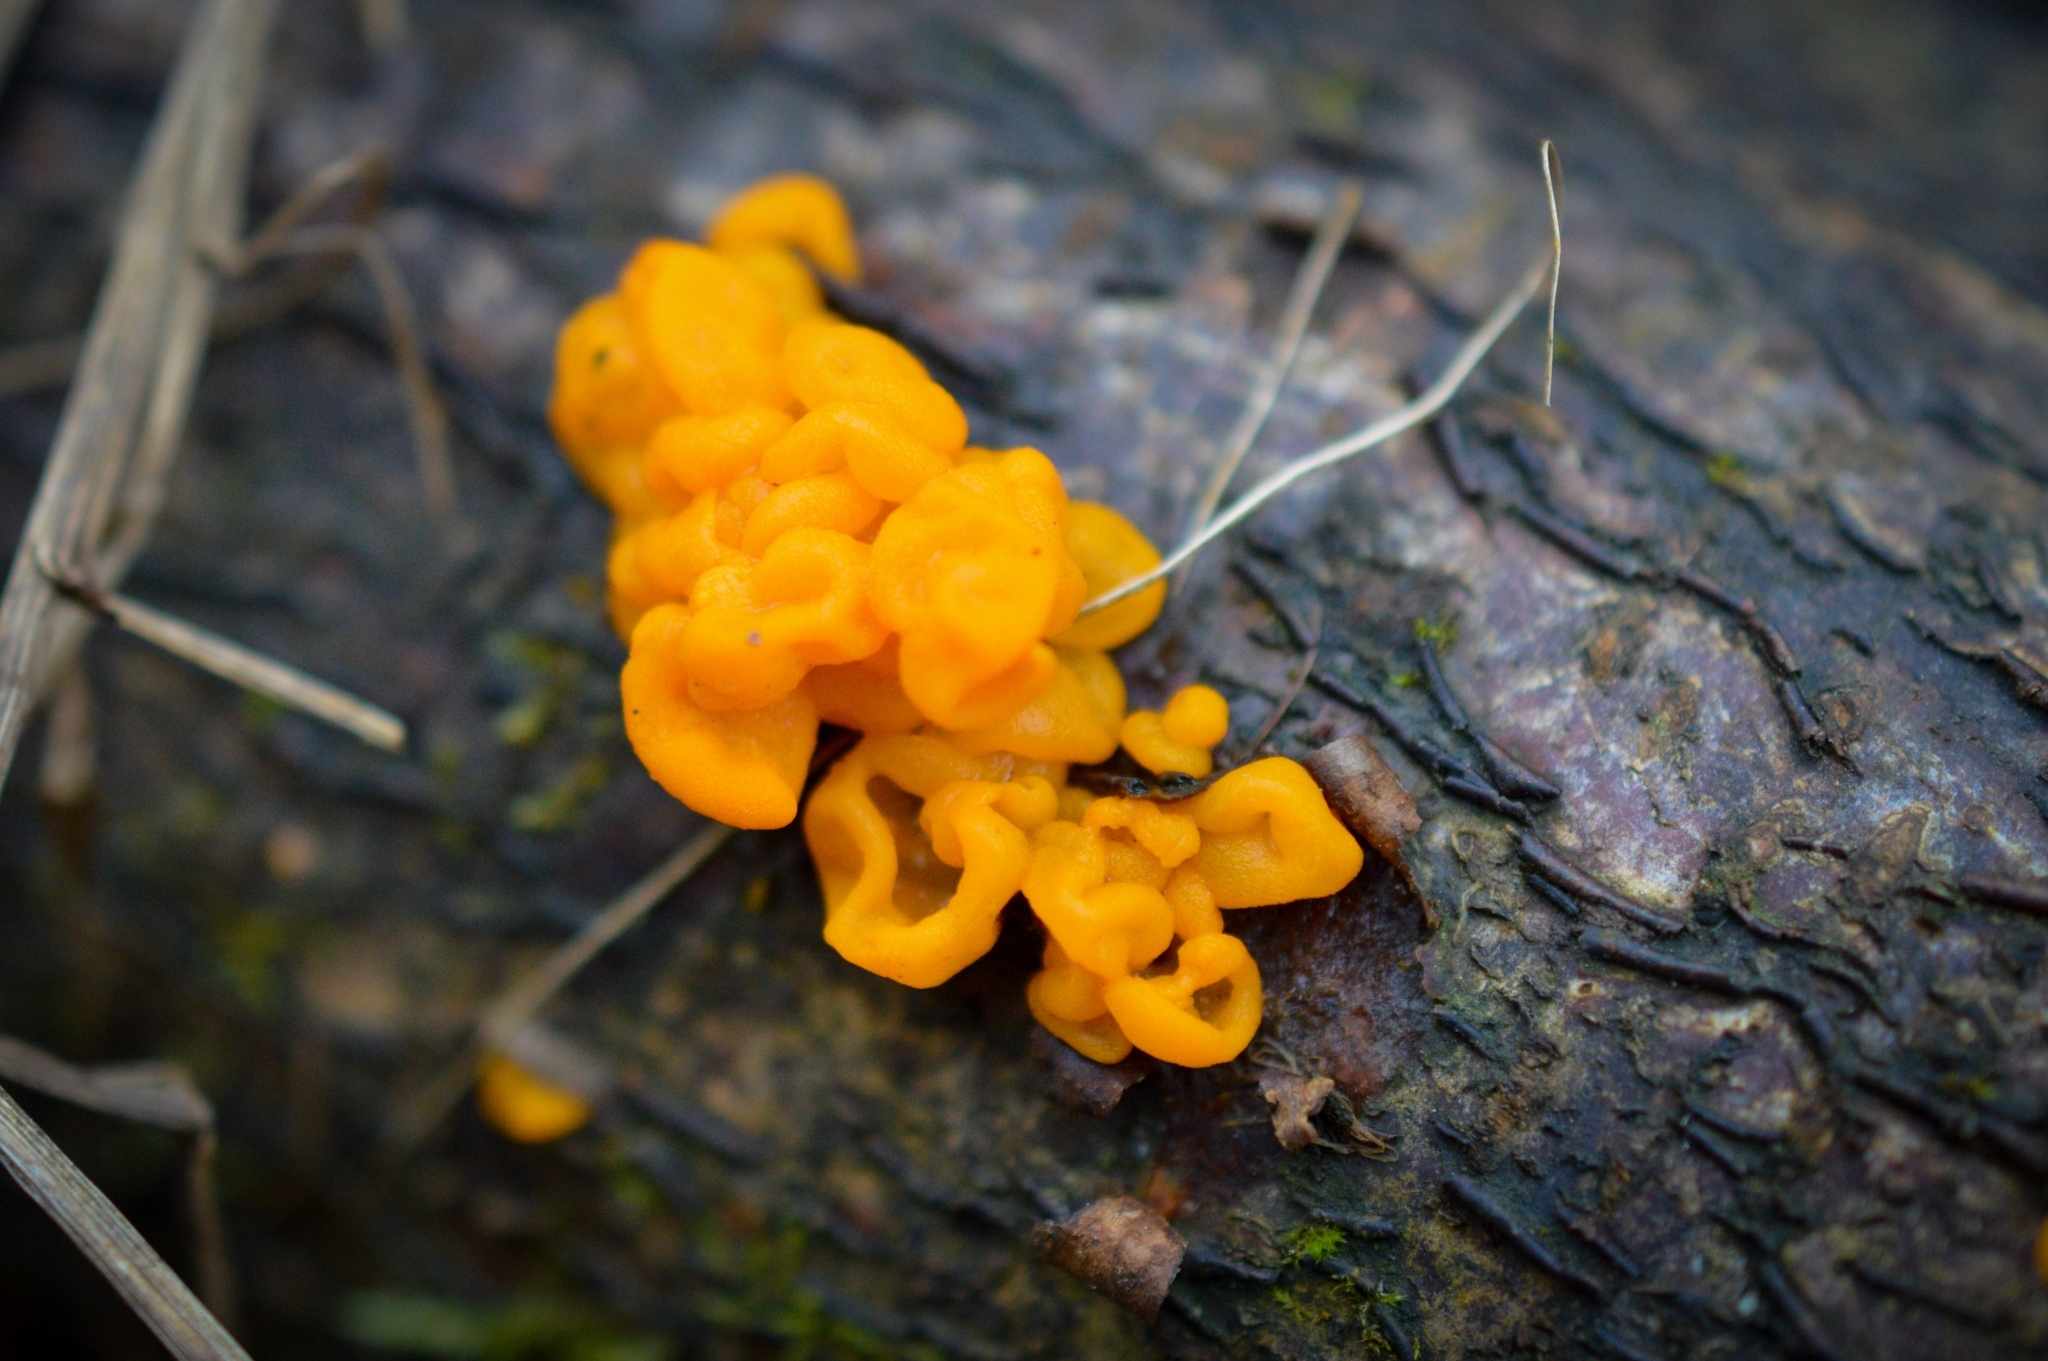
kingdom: Fungi
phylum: Basidiomycota
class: Dacrymycetes
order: Dacrymycetales
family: Dacrymycetaceae
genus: Dacrymyces
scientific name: Dacrymyces chrysospermus
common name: Orange jelly spot
